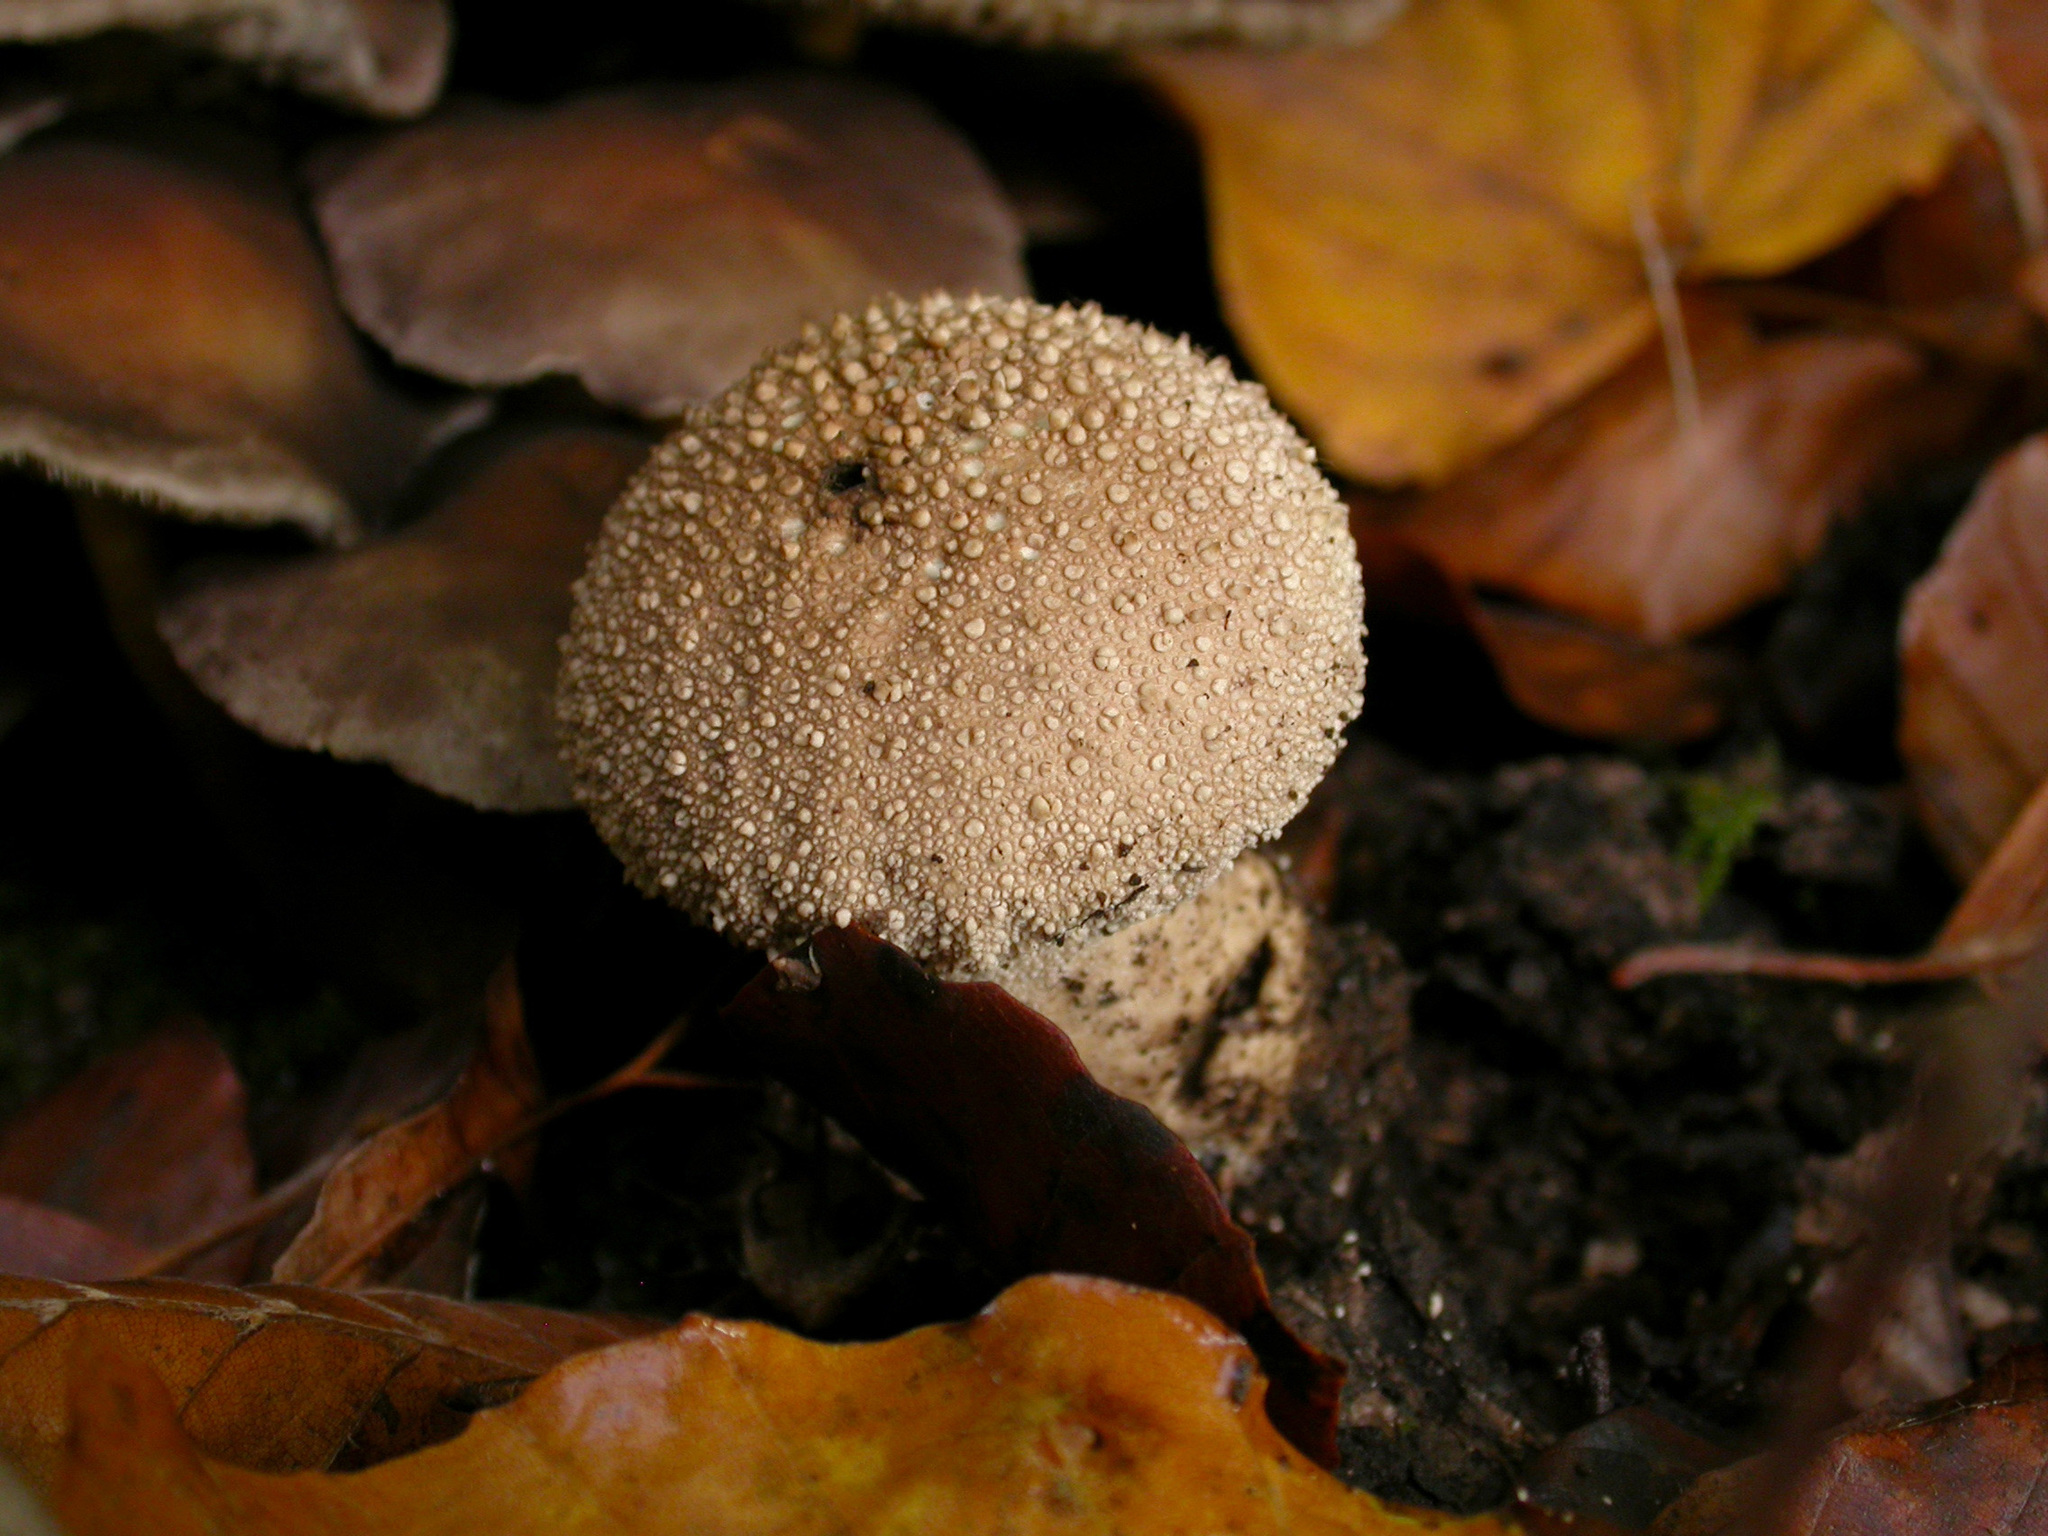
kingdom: Fungi
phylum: Basidiomycota
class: Agaricomycetes
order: Agaricales
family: Lycoperdaceae
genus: Lycoperdon
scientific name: Lycoperdon perlatum
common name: Common puffball
